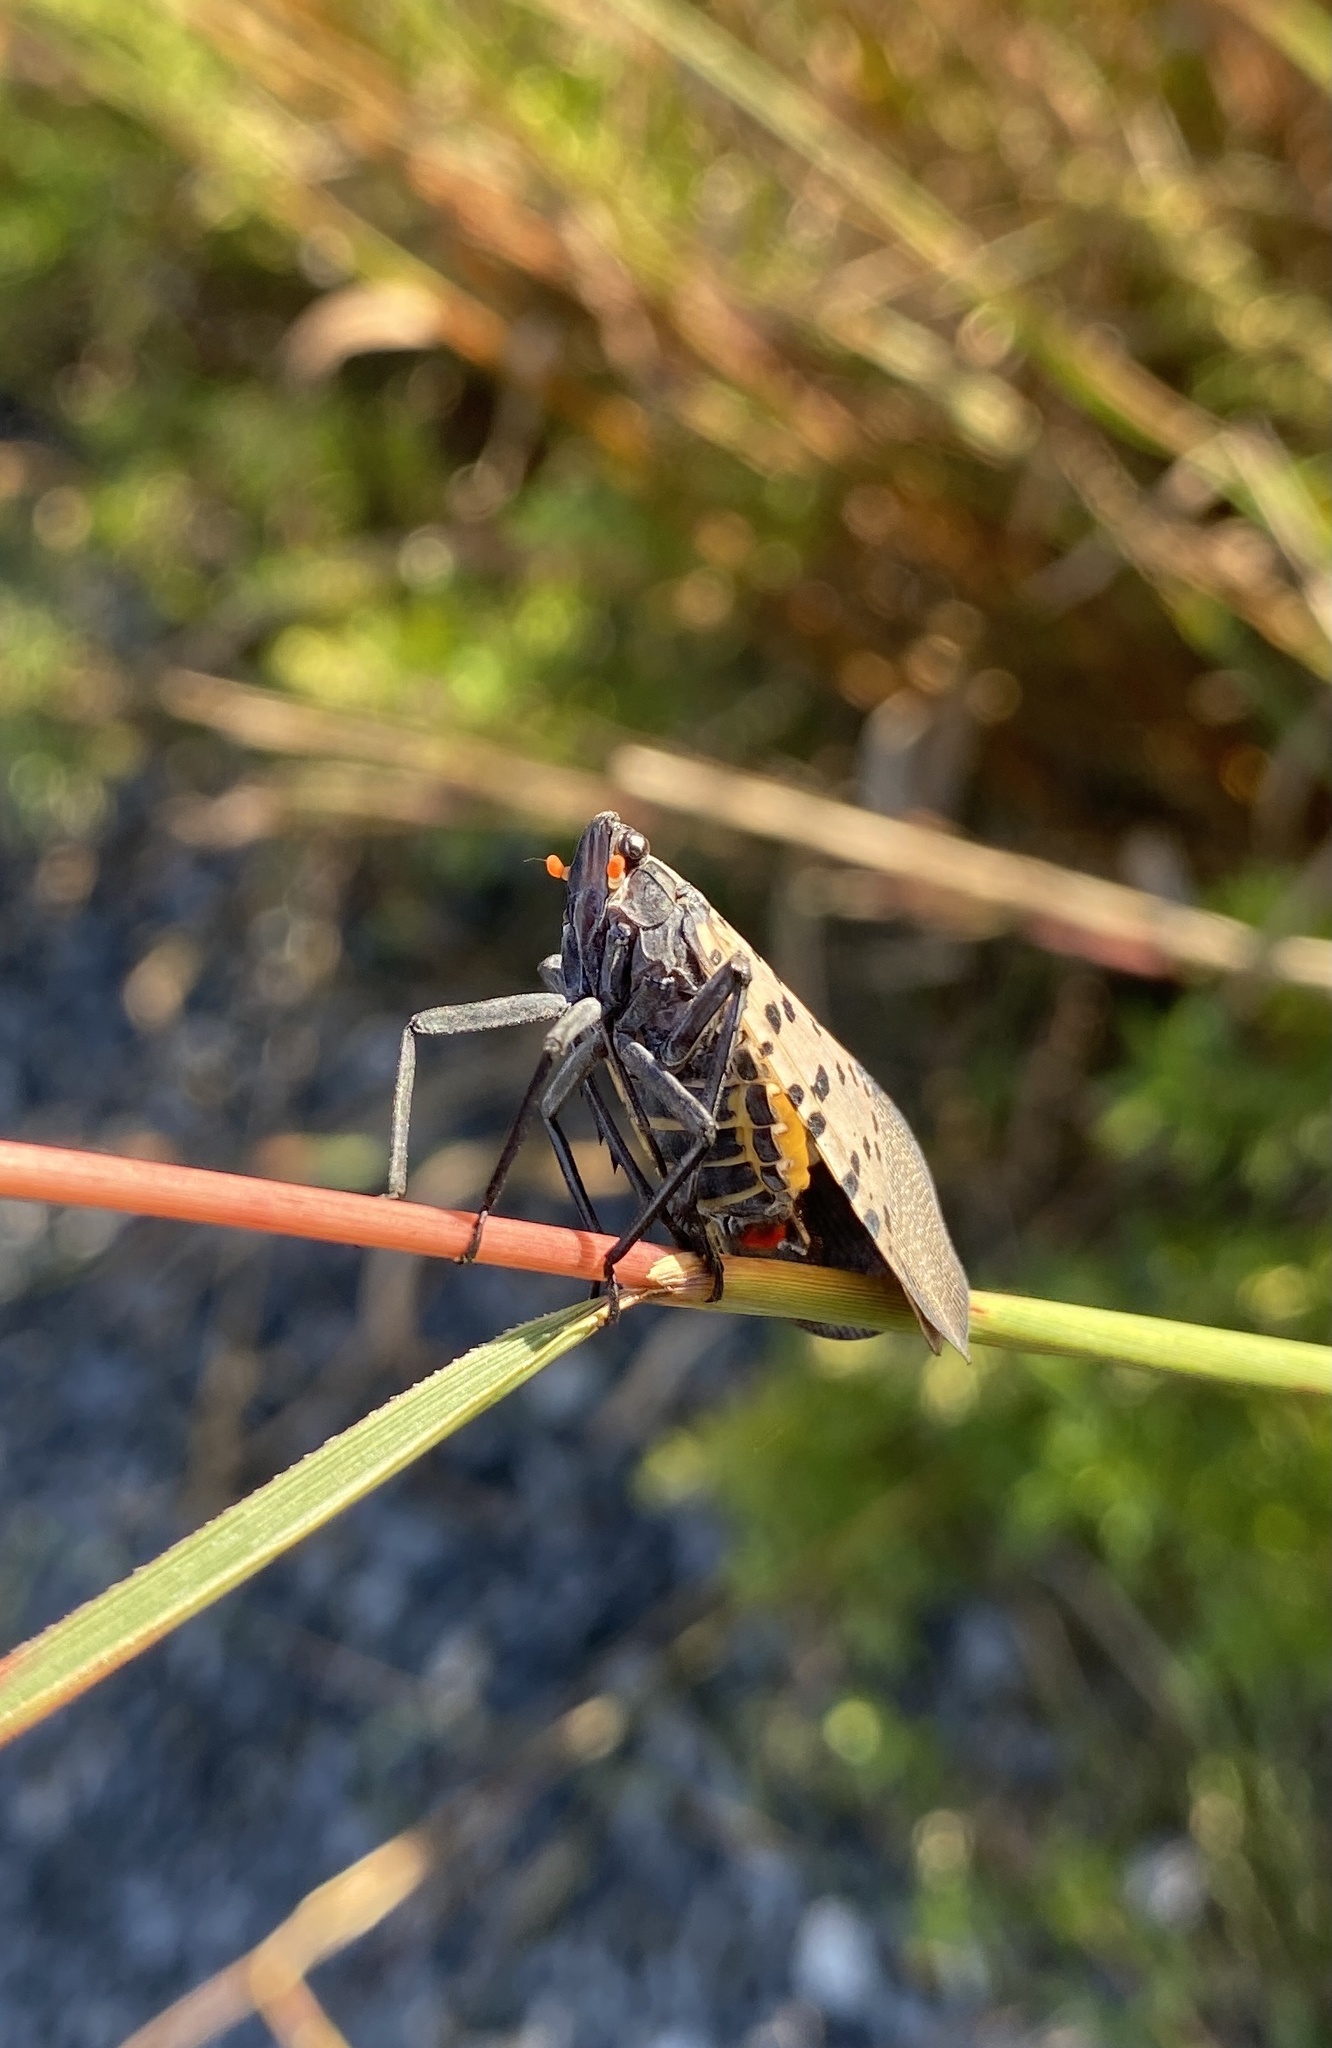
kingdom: Animalia
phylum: Arthropoda
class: Insecta
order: Hemiptera
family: Fulgoridae
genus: Lycorma
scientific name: Lycorma delicatula
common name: Spotted lanternfly
